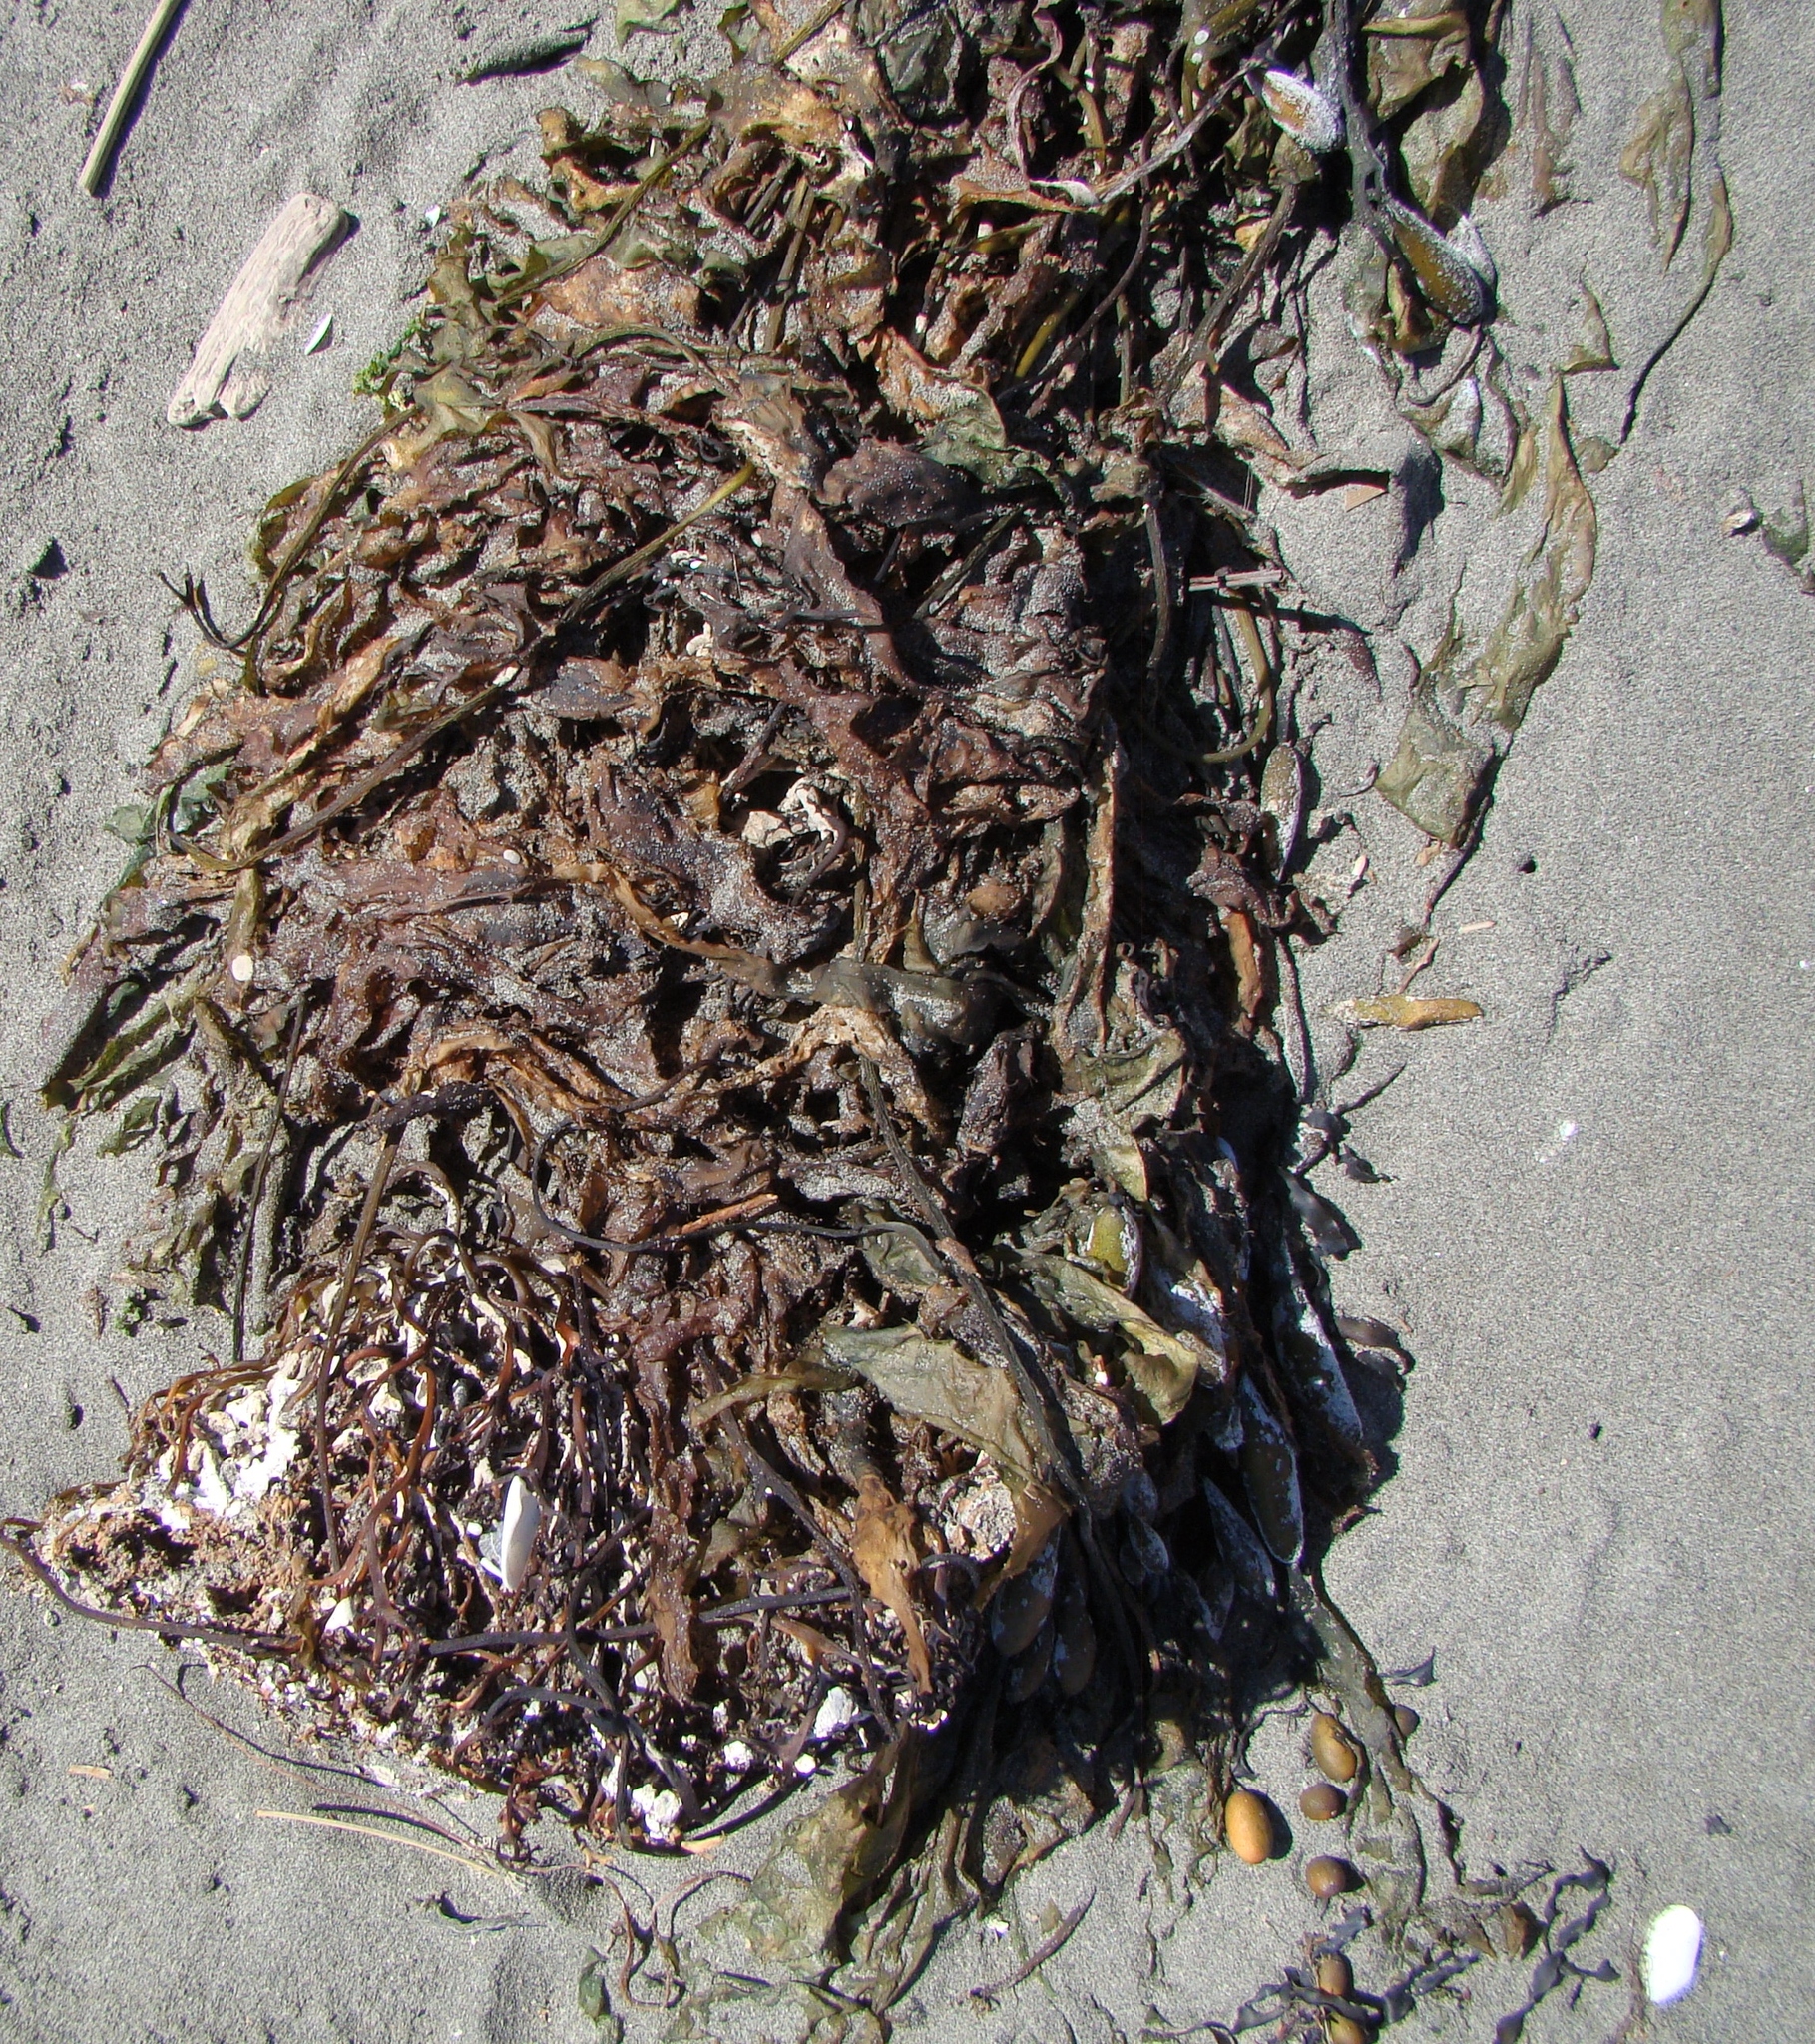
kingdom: Chromista
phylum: Ochrophyta
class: Phaeophyceae
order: Laminariales
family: Laminariaceae
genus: Macrocystis
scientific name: Macrocystis pyrifera
